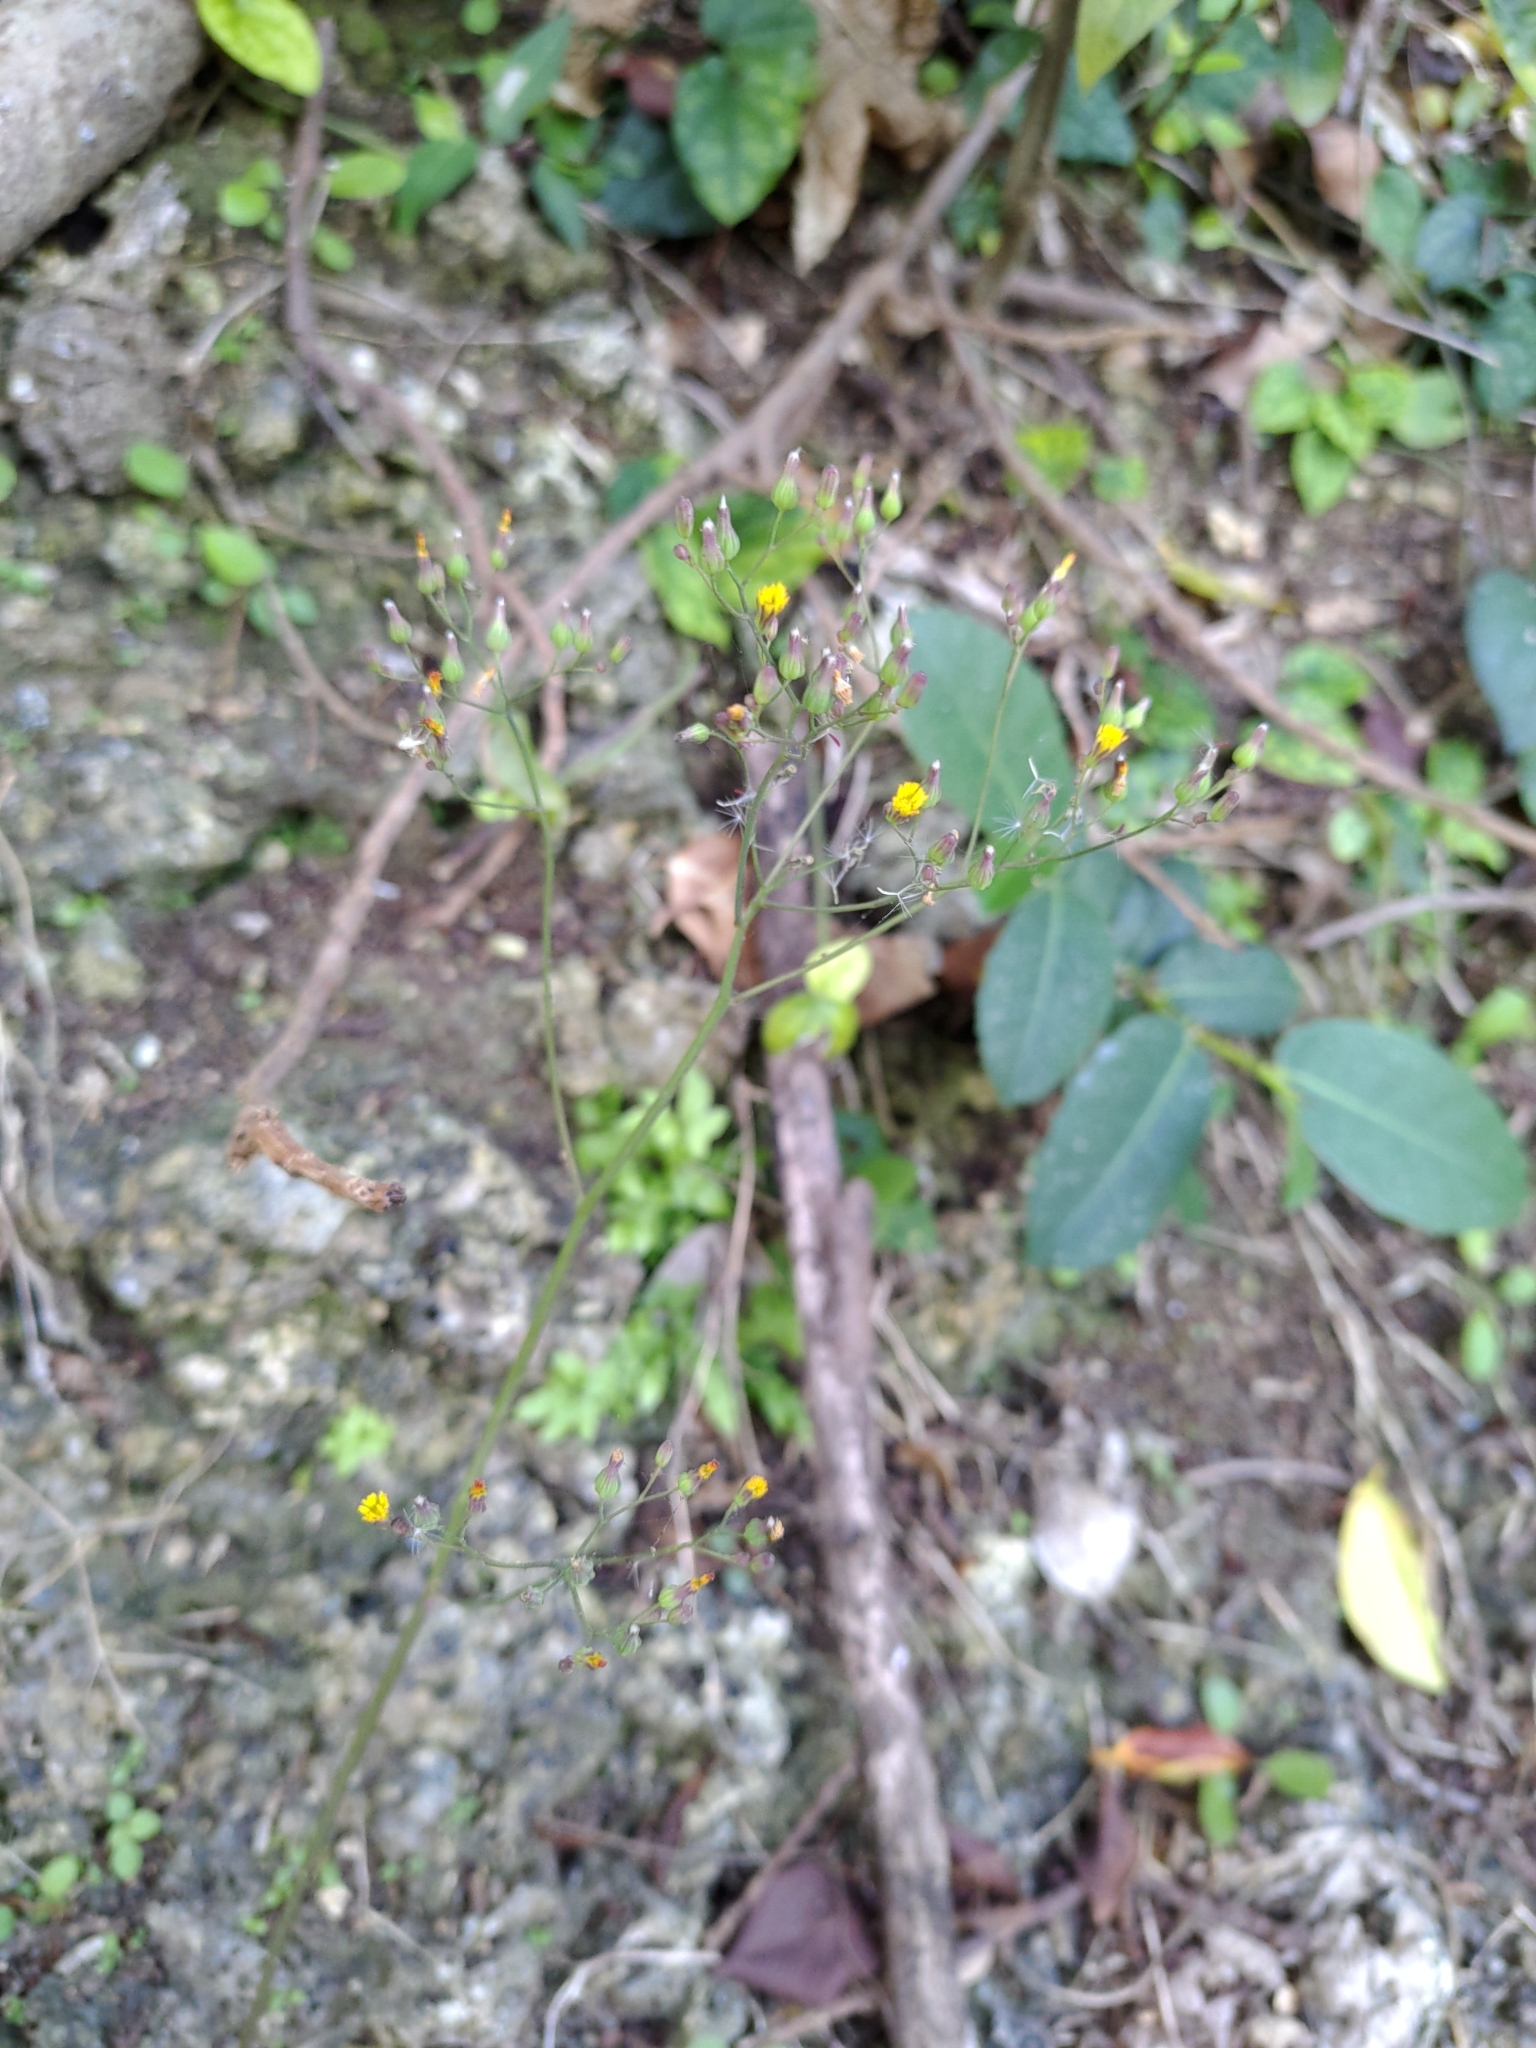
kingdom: Plantae
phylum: Tracheophyta
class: Magnoliopsida
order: Asterales
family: Asteraceae
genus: Youngia
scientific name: Youngia japonica
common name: Oriental false hawksbeard
